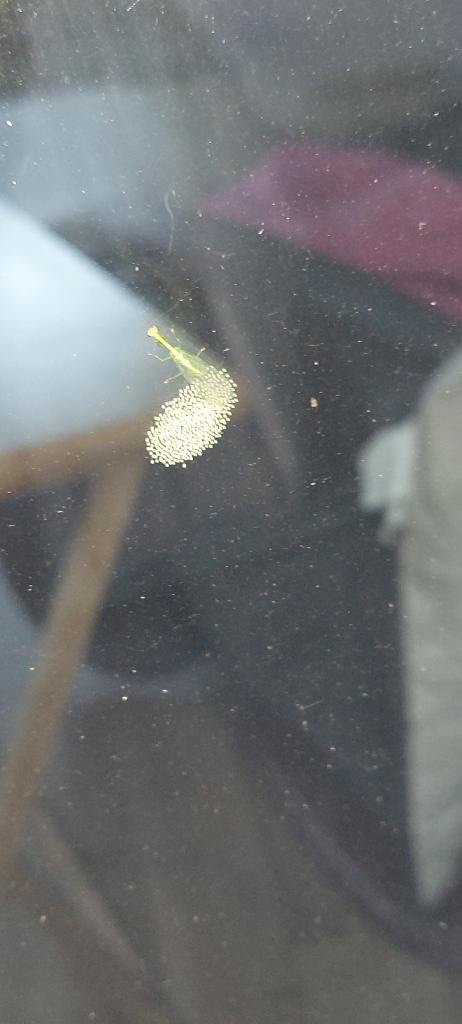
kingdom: Animalia
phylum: Arthropoda
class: Insecta
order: Neuroptera
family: Mantispidae
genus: Zeugomantispa
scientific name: Zeugomantispa minuta
